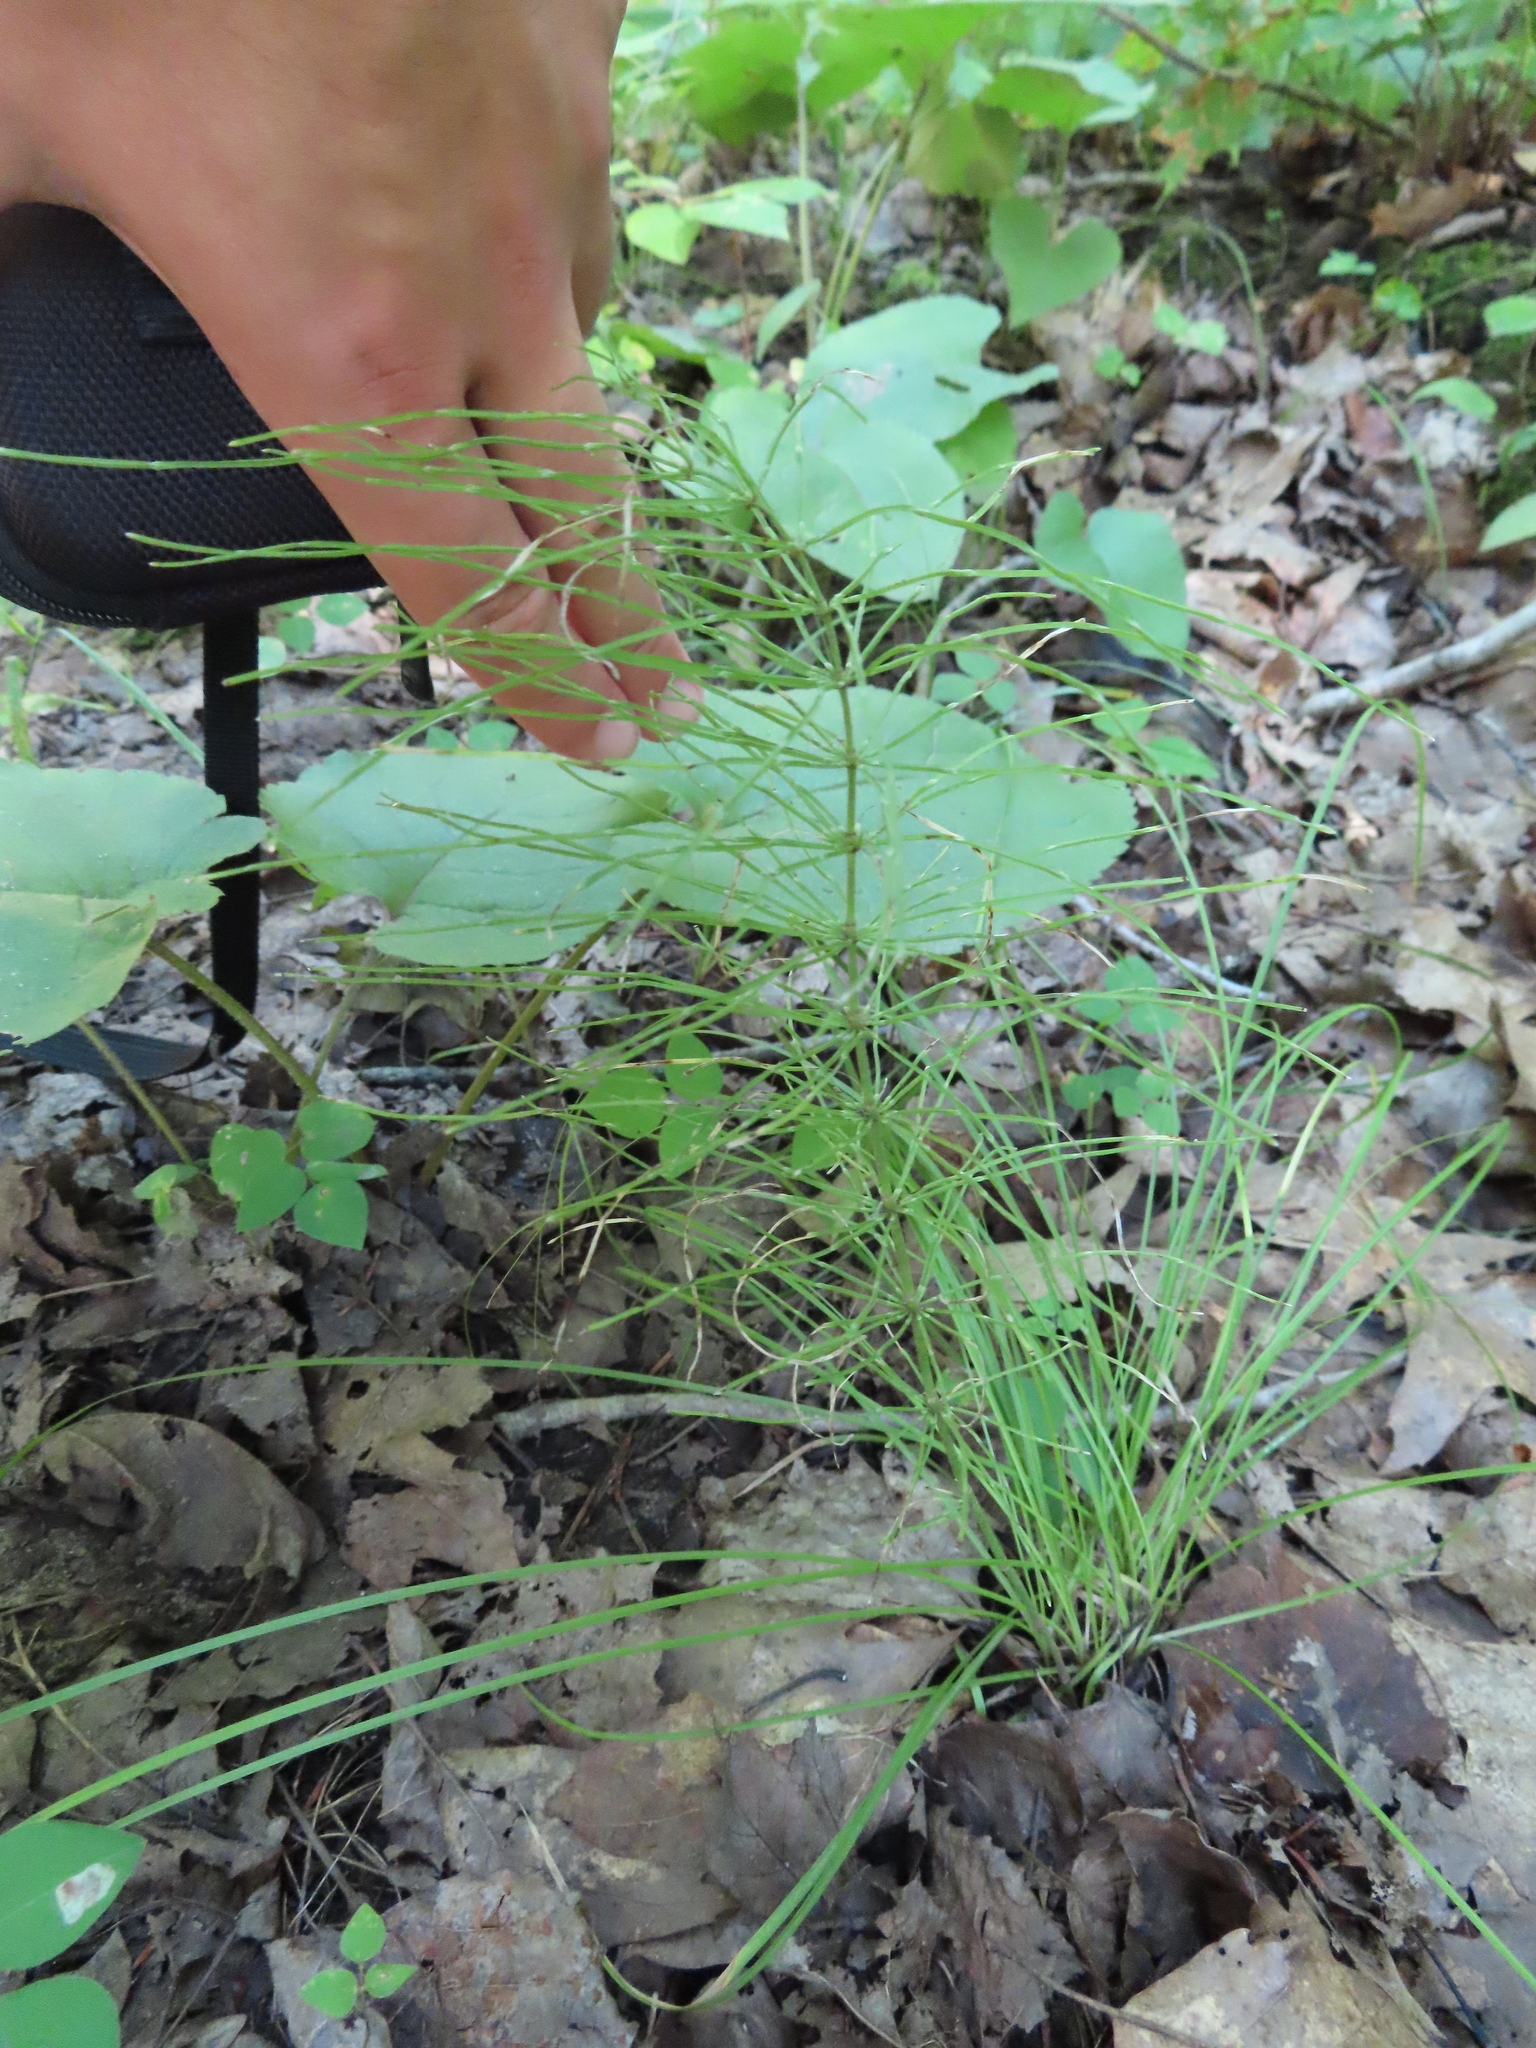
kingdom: Plantae
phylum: Tracheophyta
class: Polypodiopsida
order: Equisetales
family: Equisetaceae
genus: Equisetum
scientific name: Equisetum pratense
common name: Meadow horsetail
